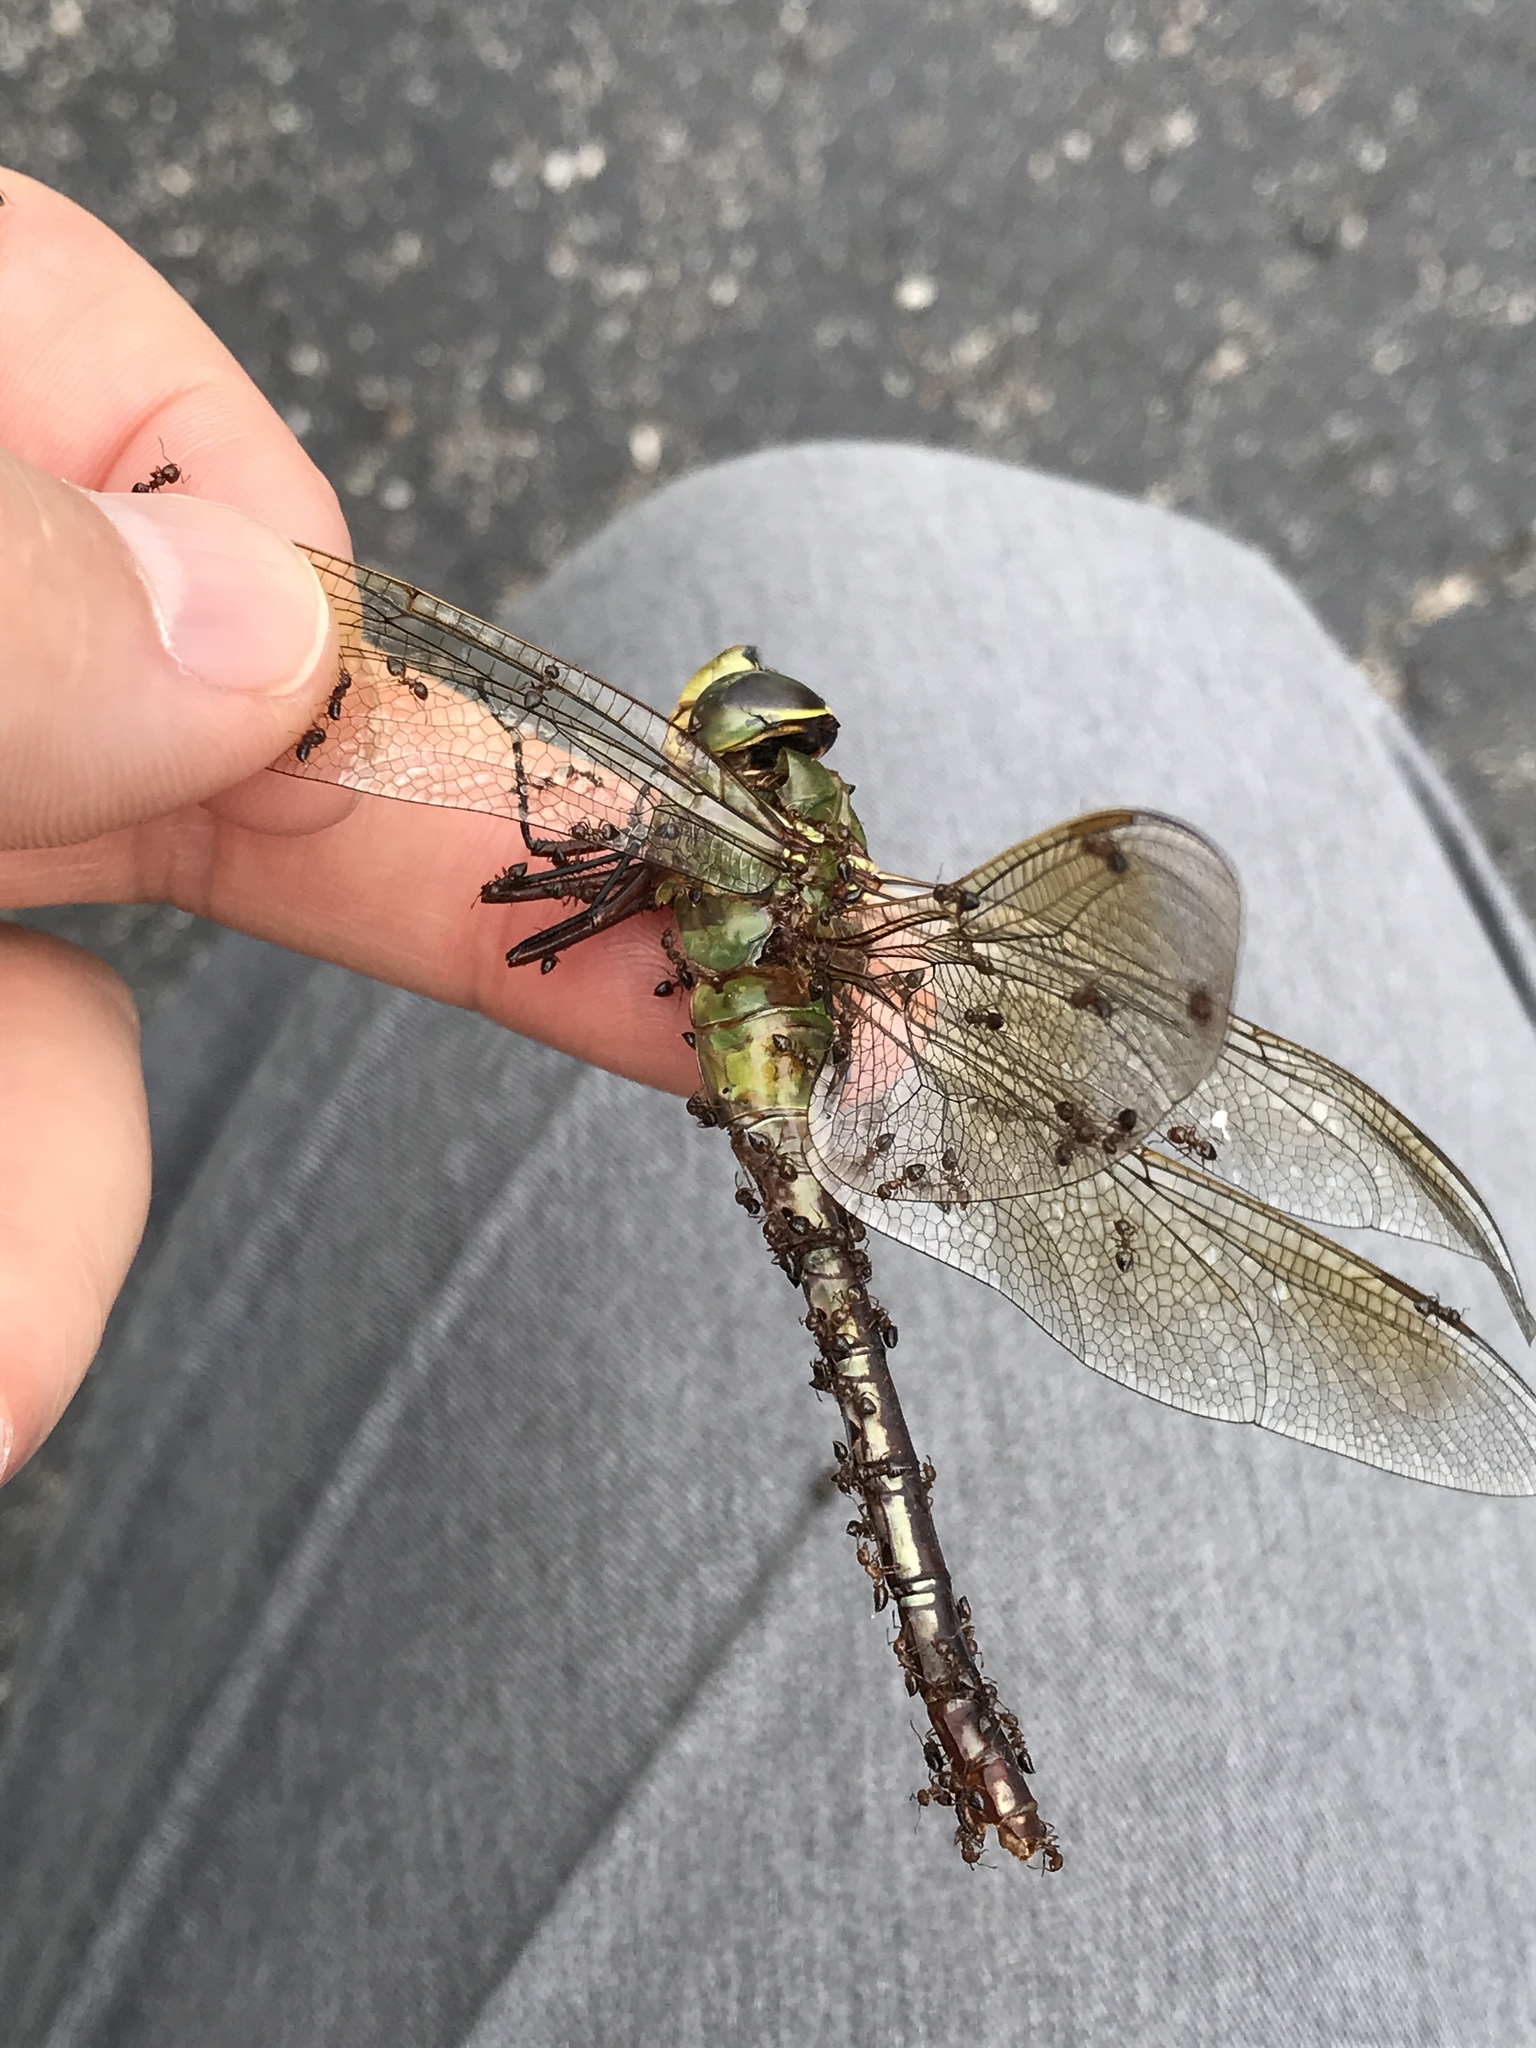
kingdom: Animalia
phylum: Arthropoda
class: Insecta
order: Odonata
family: Aeshnidae
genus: Anax
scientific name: Anax junius
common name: Common green darner
